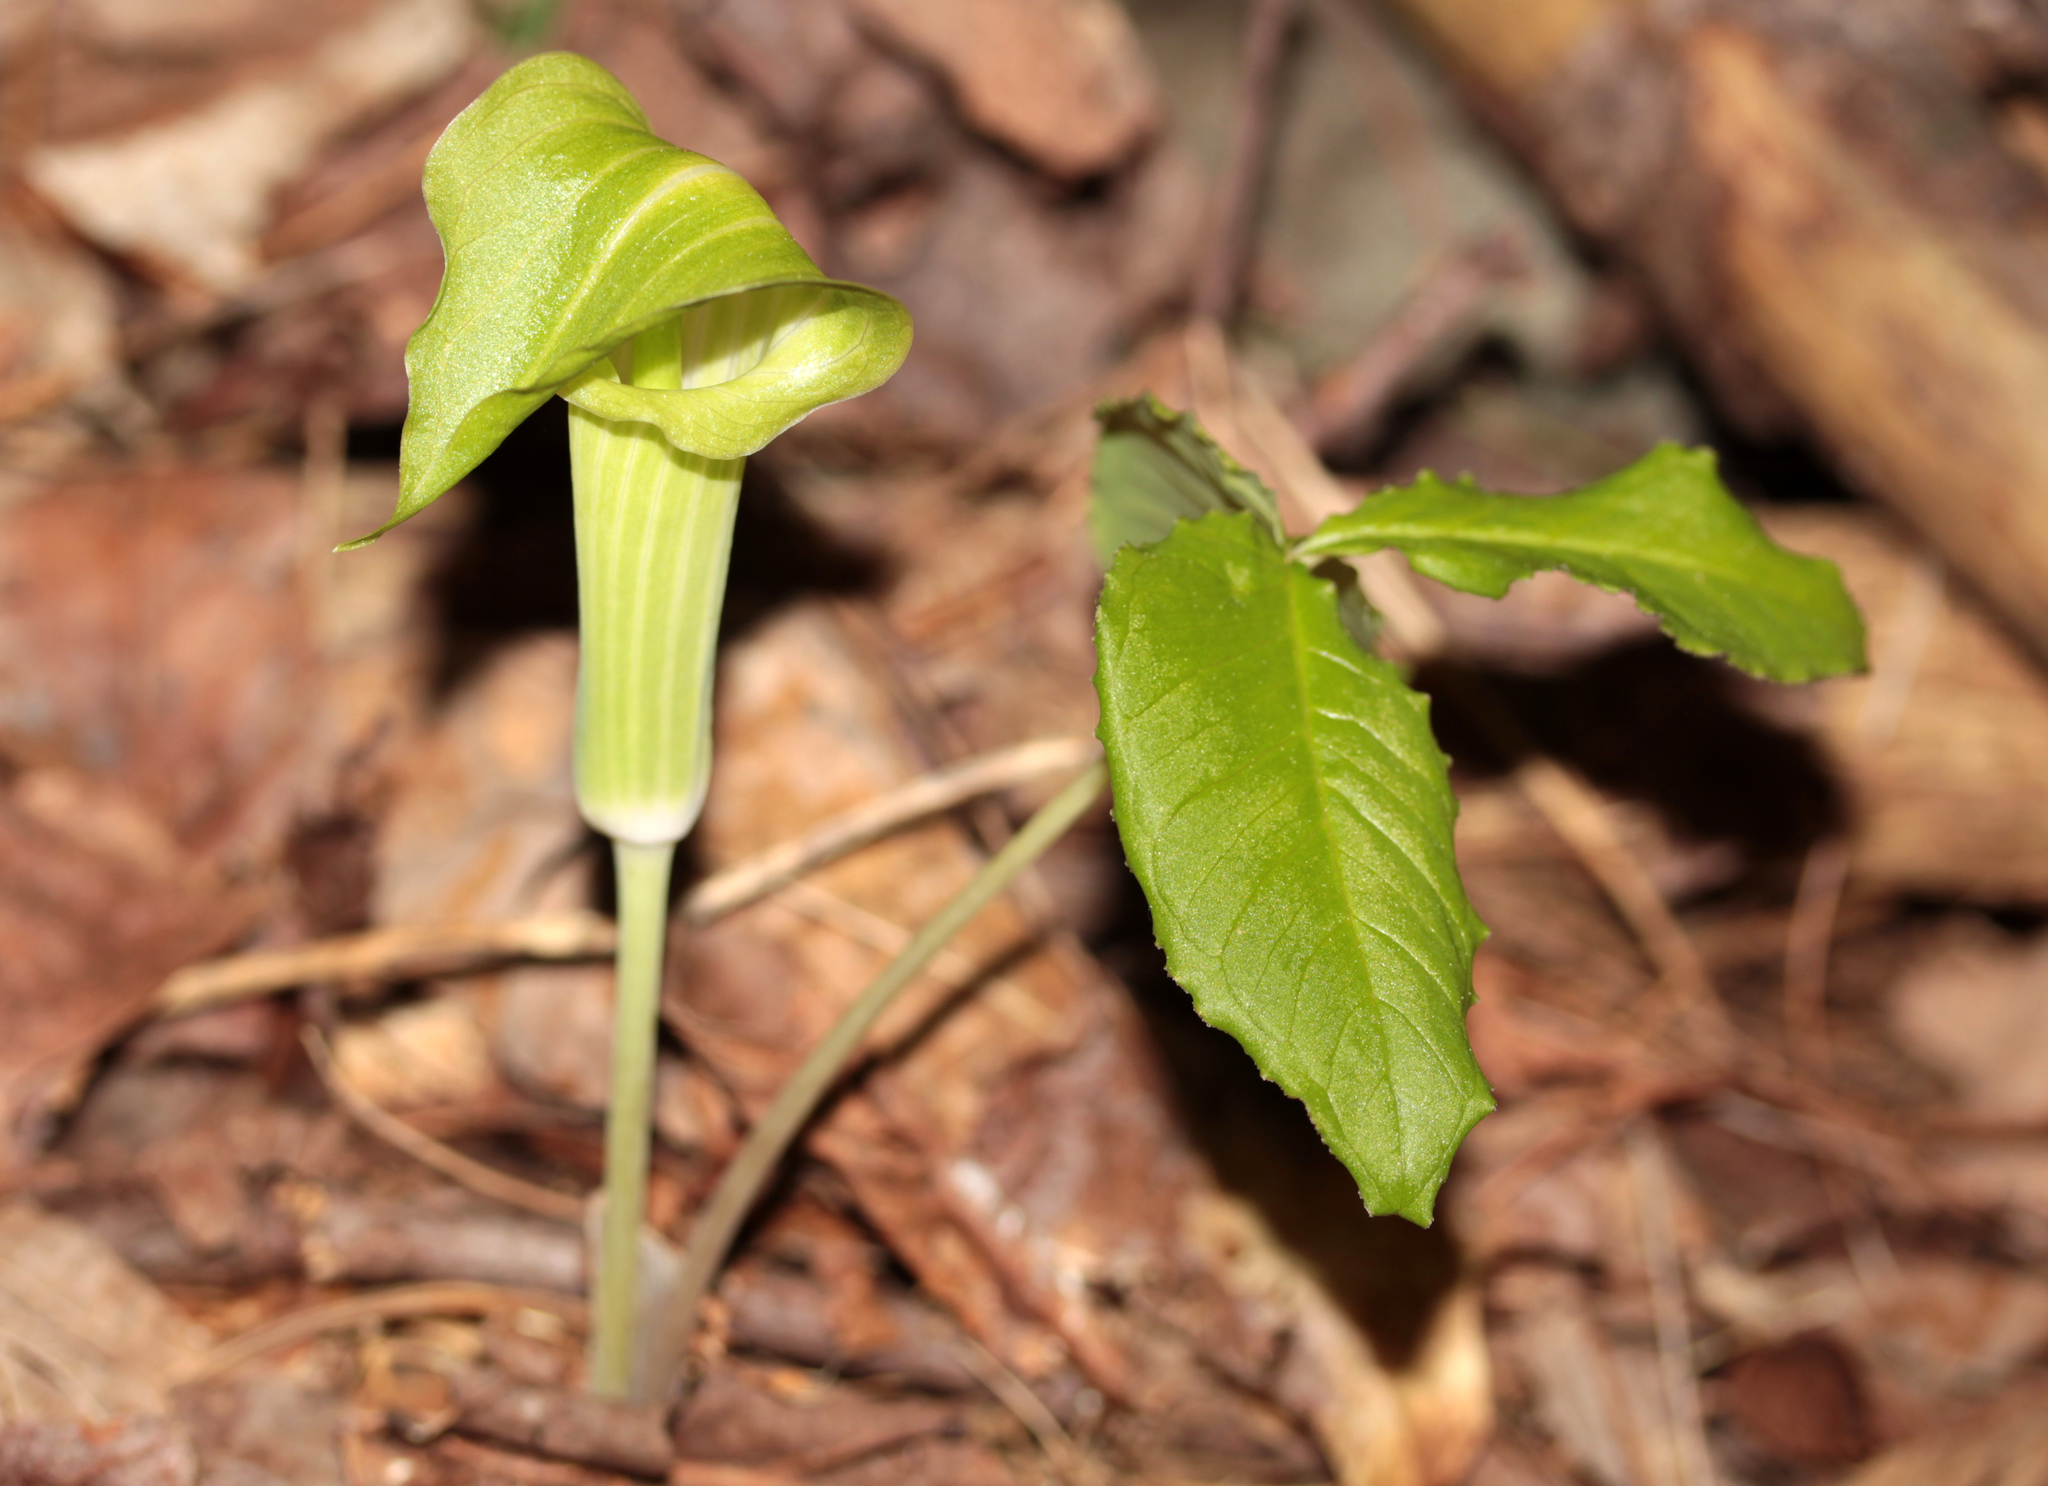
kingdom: Plantae
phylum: Tracheophyta
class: Liliopsida
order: Alismatales
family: Araceae
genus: Arisaema
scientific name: Arisaema triphyllum
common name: Jack-in-the-pulpit
